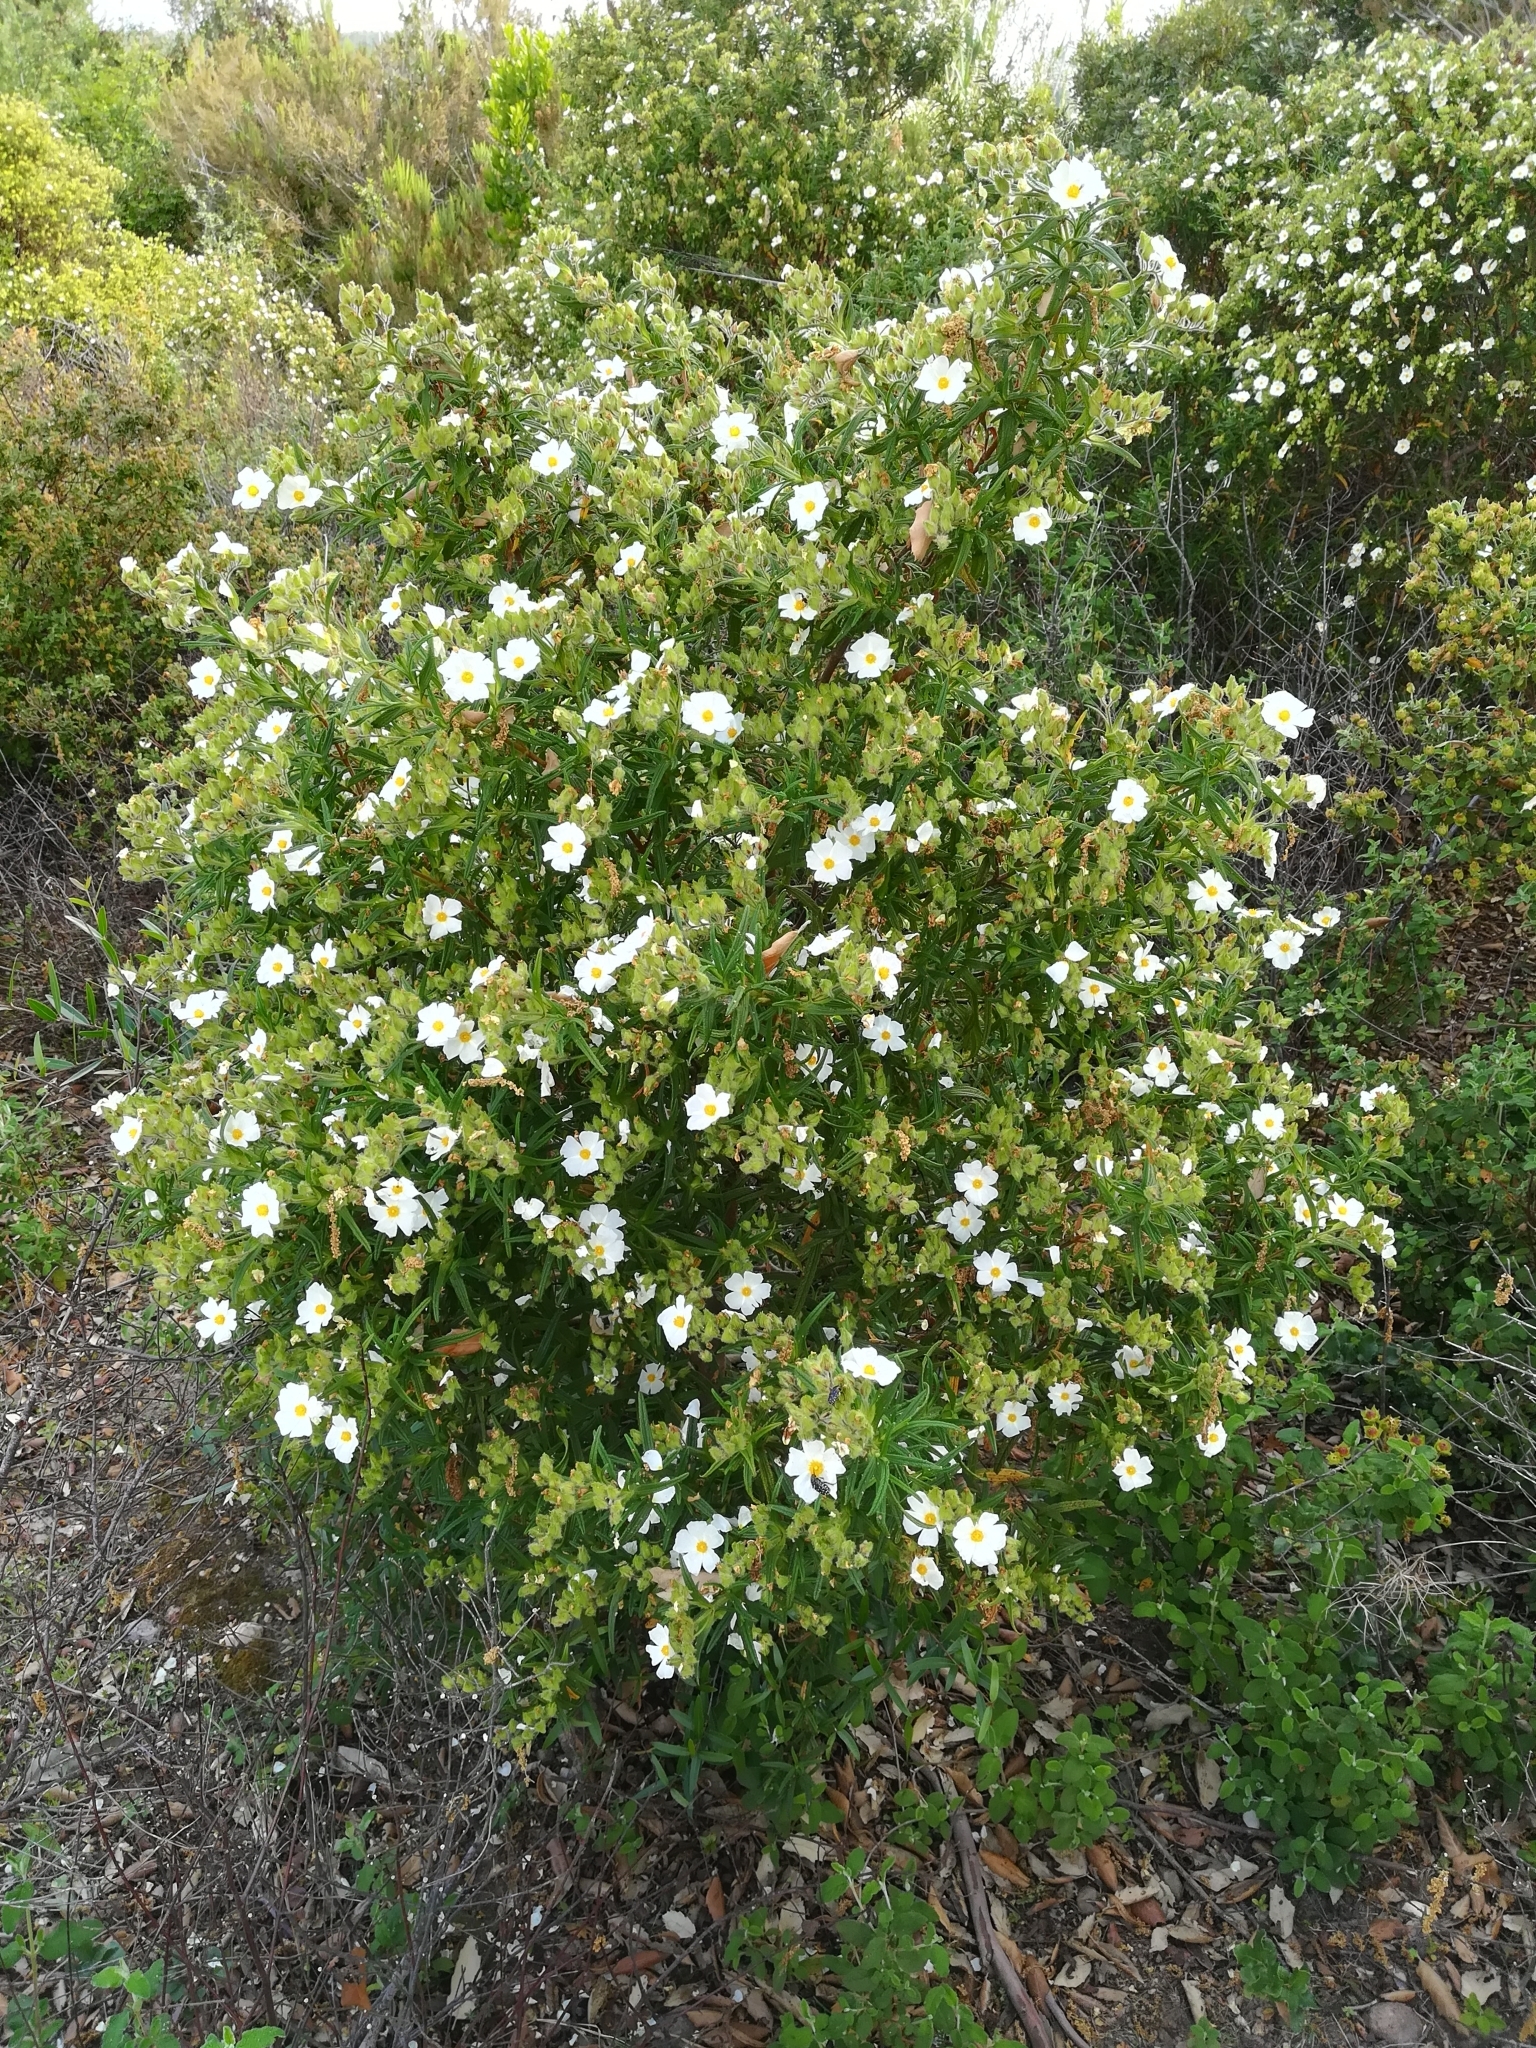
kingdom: Plantae
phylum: Tracheophyta
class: Magnoliopsida
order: Malvales
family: Cistaceae
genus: Cistus
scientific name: Cistus monspeliensis
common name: Montpelier cistus
